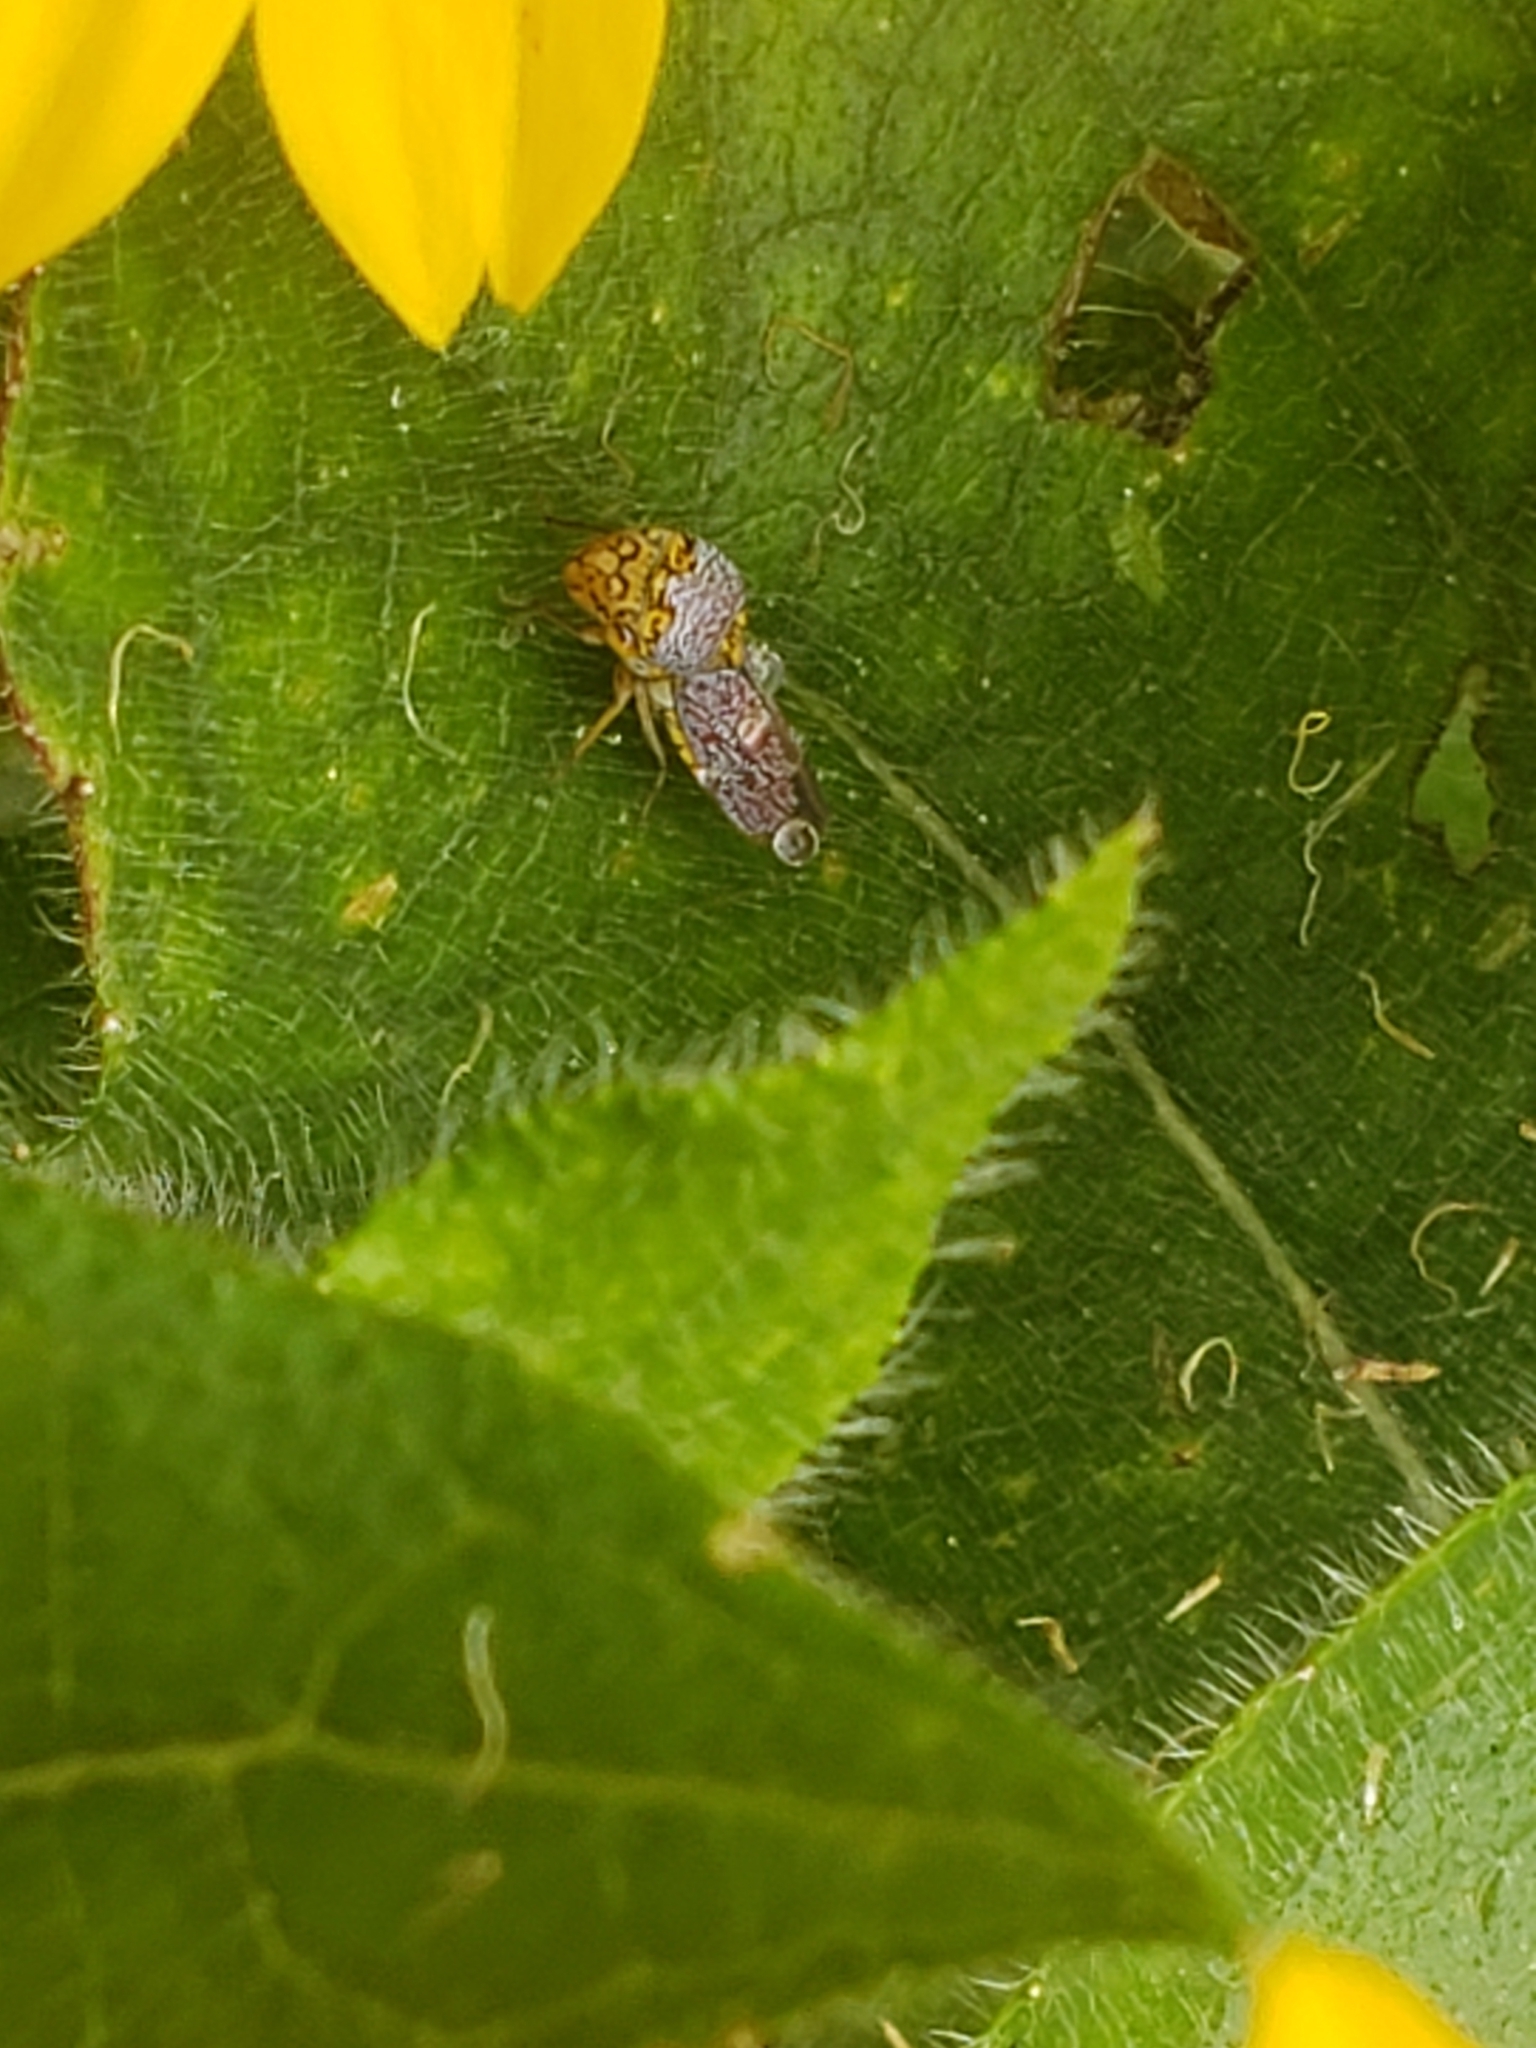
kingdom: Animalia
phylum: Arthropoda
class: Insecta
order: Hemiptera
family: Cicadellidae
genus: Oncometopia
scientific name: Oncometopia orbona
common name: Broad-headed sharpshooter
